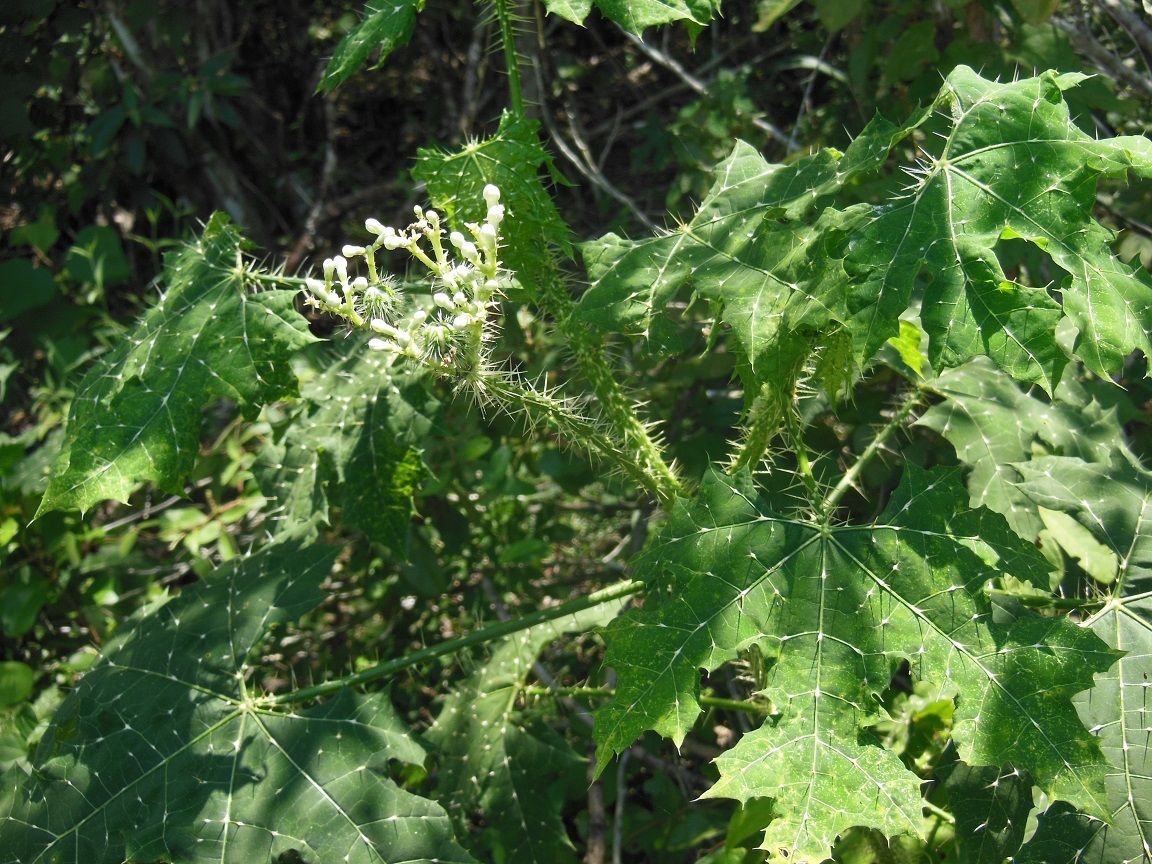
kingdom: Plantae
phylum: Tracheophyta
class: Magnoliopsida
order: Malpighiales
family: Euphorbiaceae
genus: Cnidoscolus
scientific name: Cnidoscolus aconitifolius
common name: Cabbage-star
